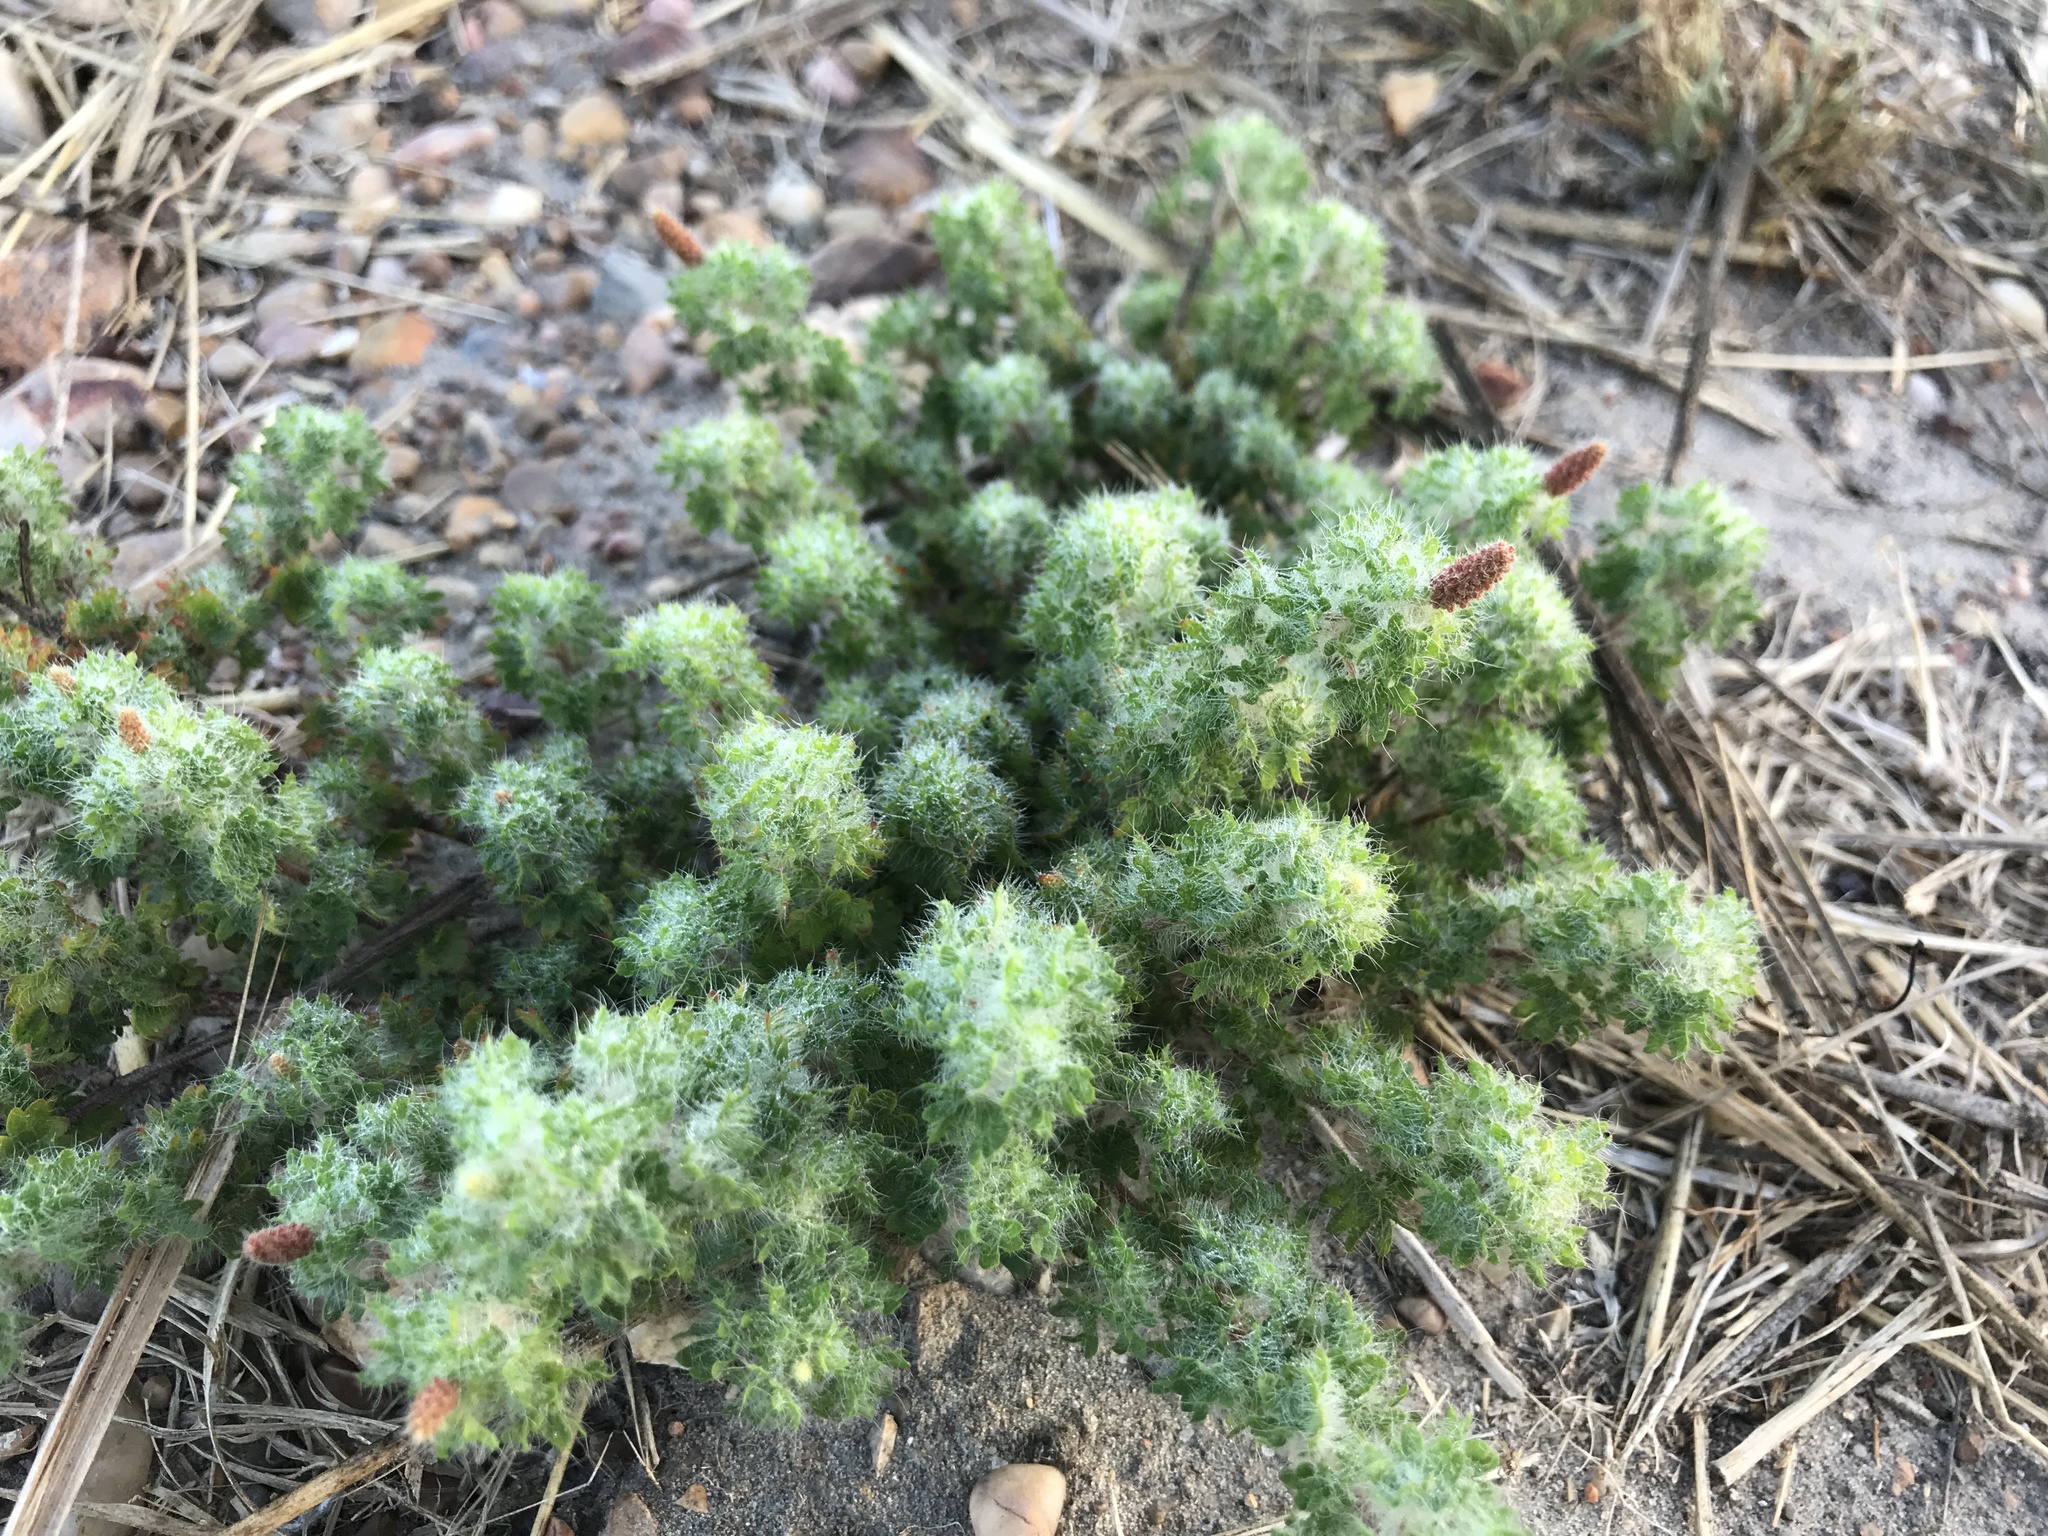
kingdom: Plantae
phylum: Tracheophyta
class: Magnoliopsida
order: Malpighiales
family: Euphorbiaceae
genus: Acalypha
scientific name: Acalypha radians
